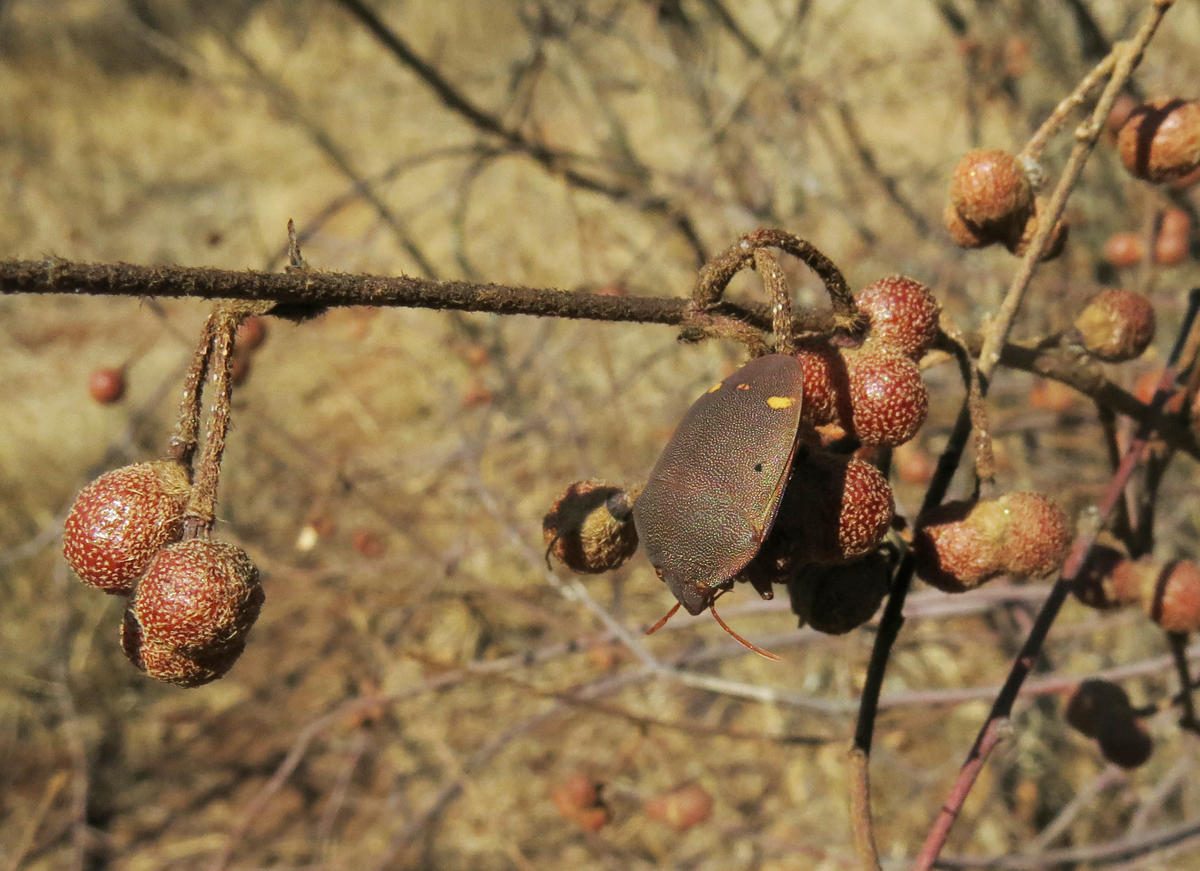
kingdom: Plantae
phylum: Tracheophyta
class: Magnoliopsida
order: Malvales
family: Malvaceae
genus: Grewia
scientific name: Grewia flavescens
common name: Sandpaper raisin
